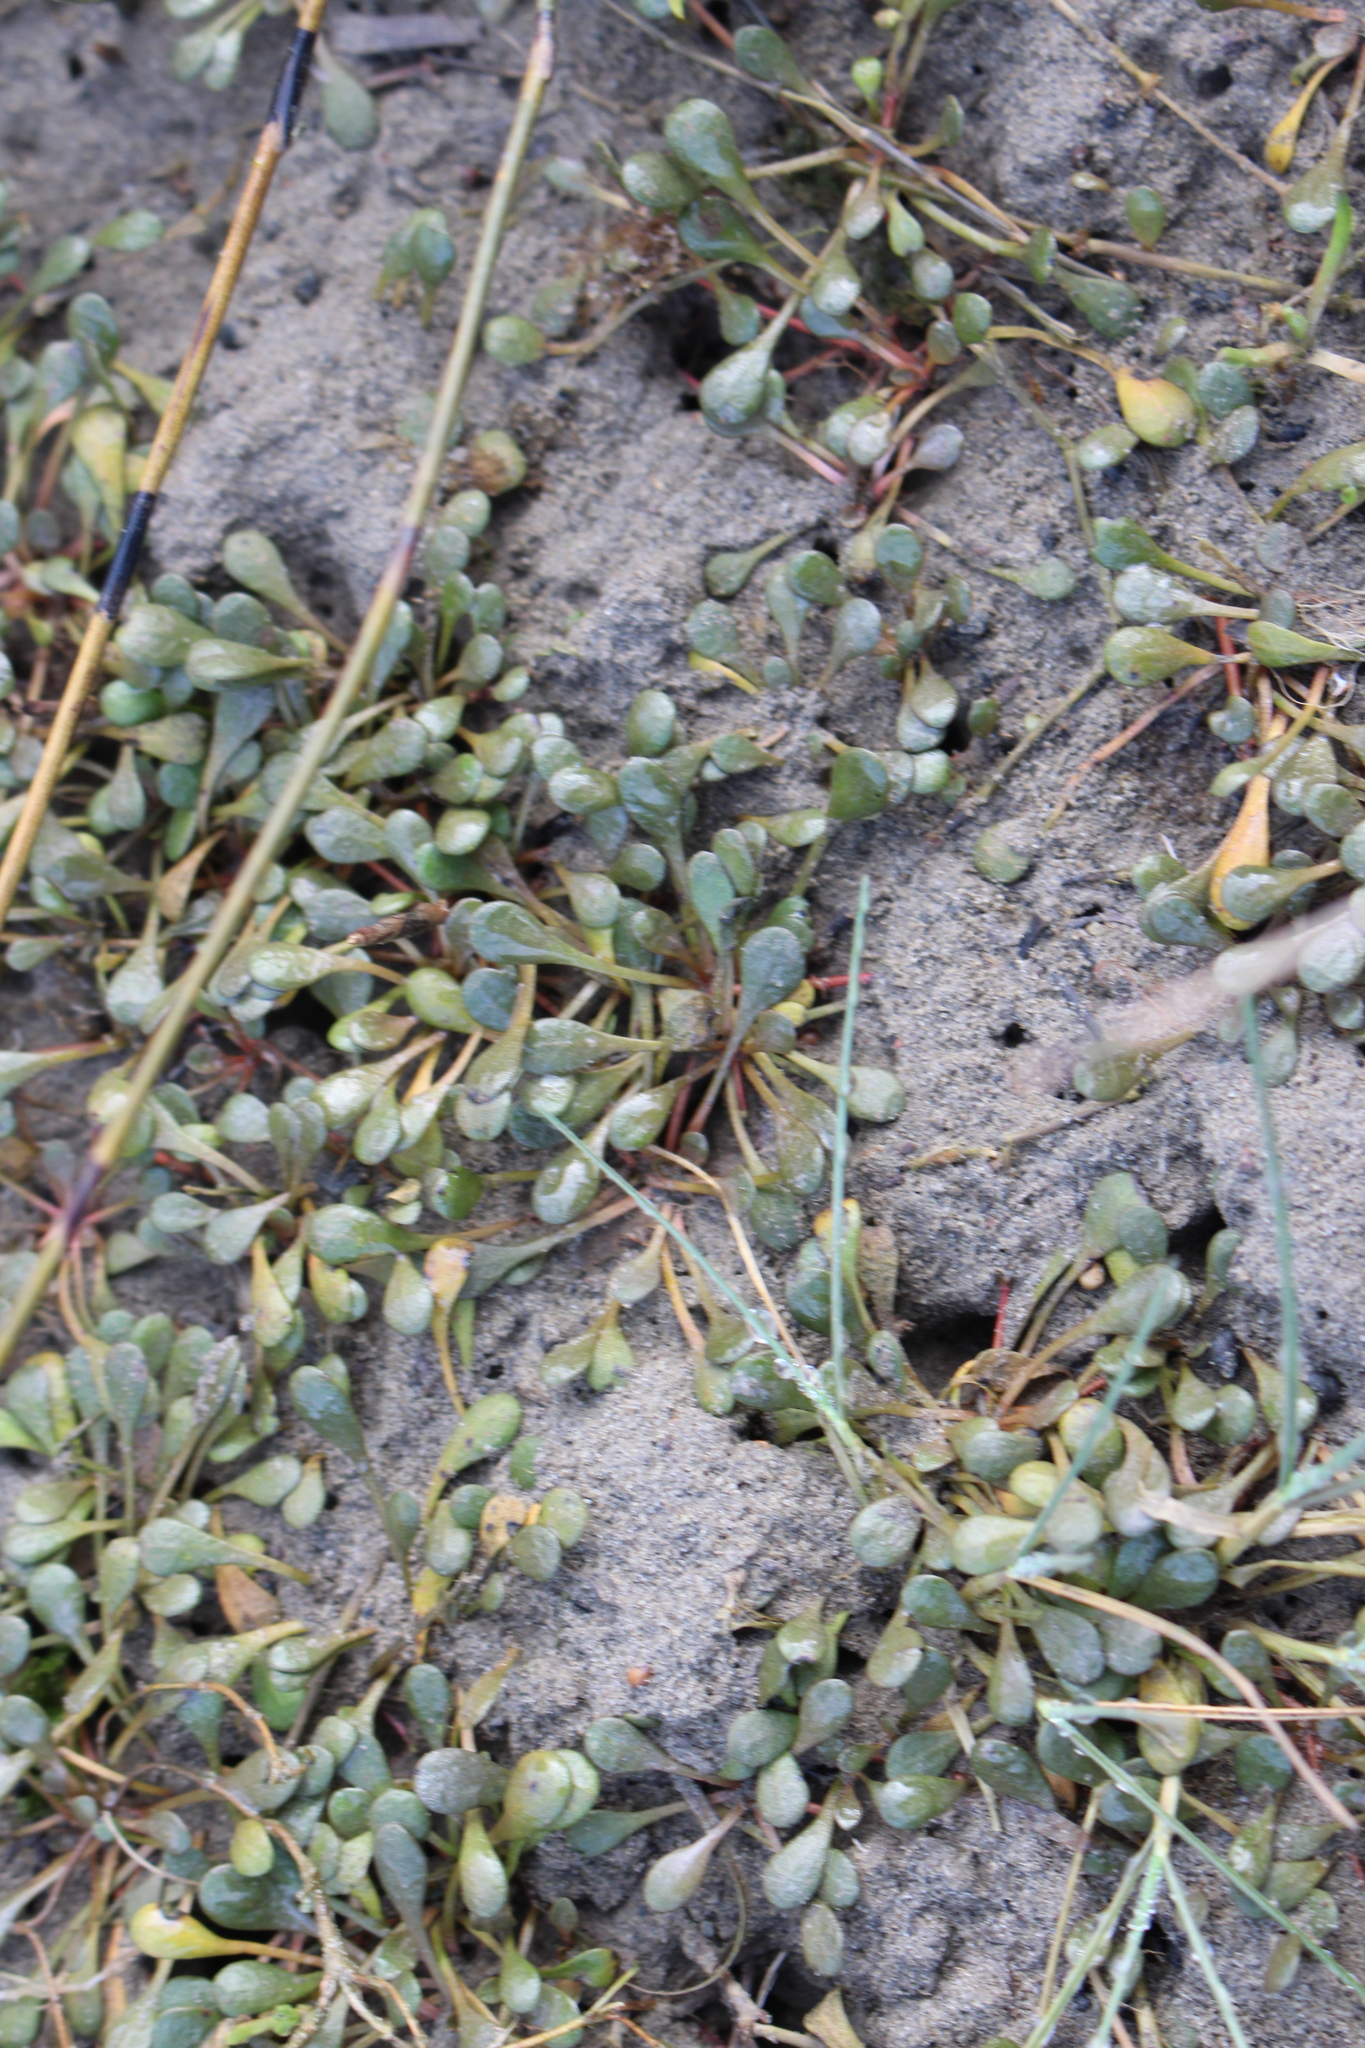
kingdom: Plantae
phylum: Tracheophyta
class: Magnoliopsida
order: Ericales
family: Primulaceae
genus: Samolus
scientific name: Samolus repens
